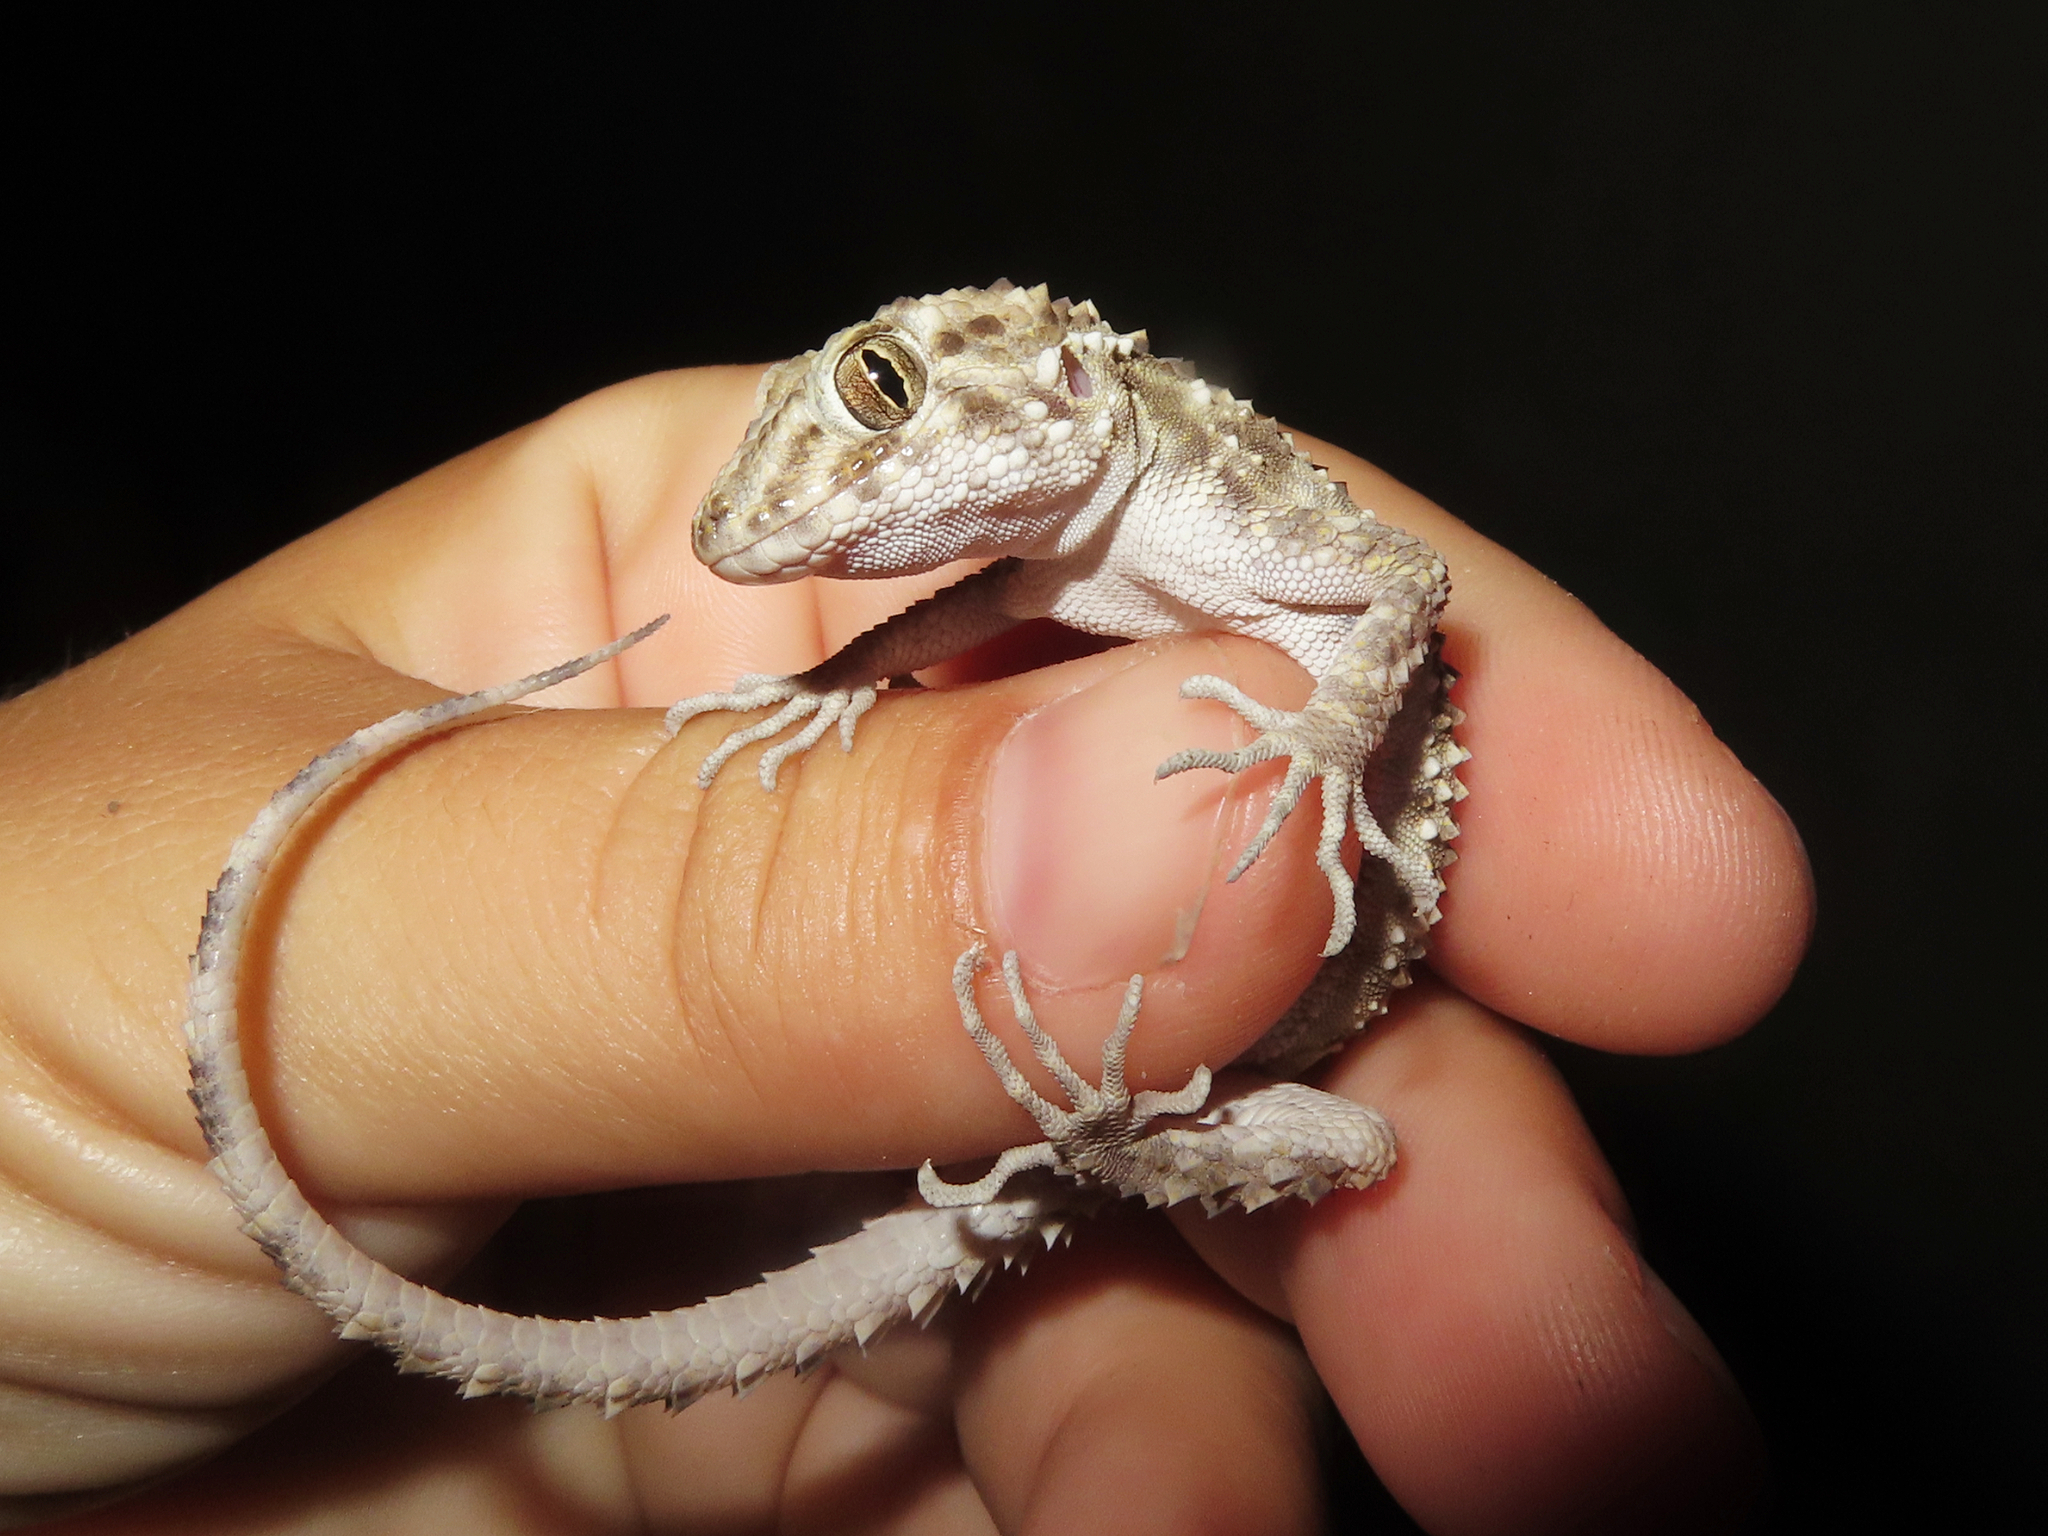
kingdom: Animalia
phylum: Chordata
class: Squamata
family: Gekkonidae
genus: Tenuidactylus
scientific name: Tenuidactylus caspius
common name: Caspian bent-toed gecko
